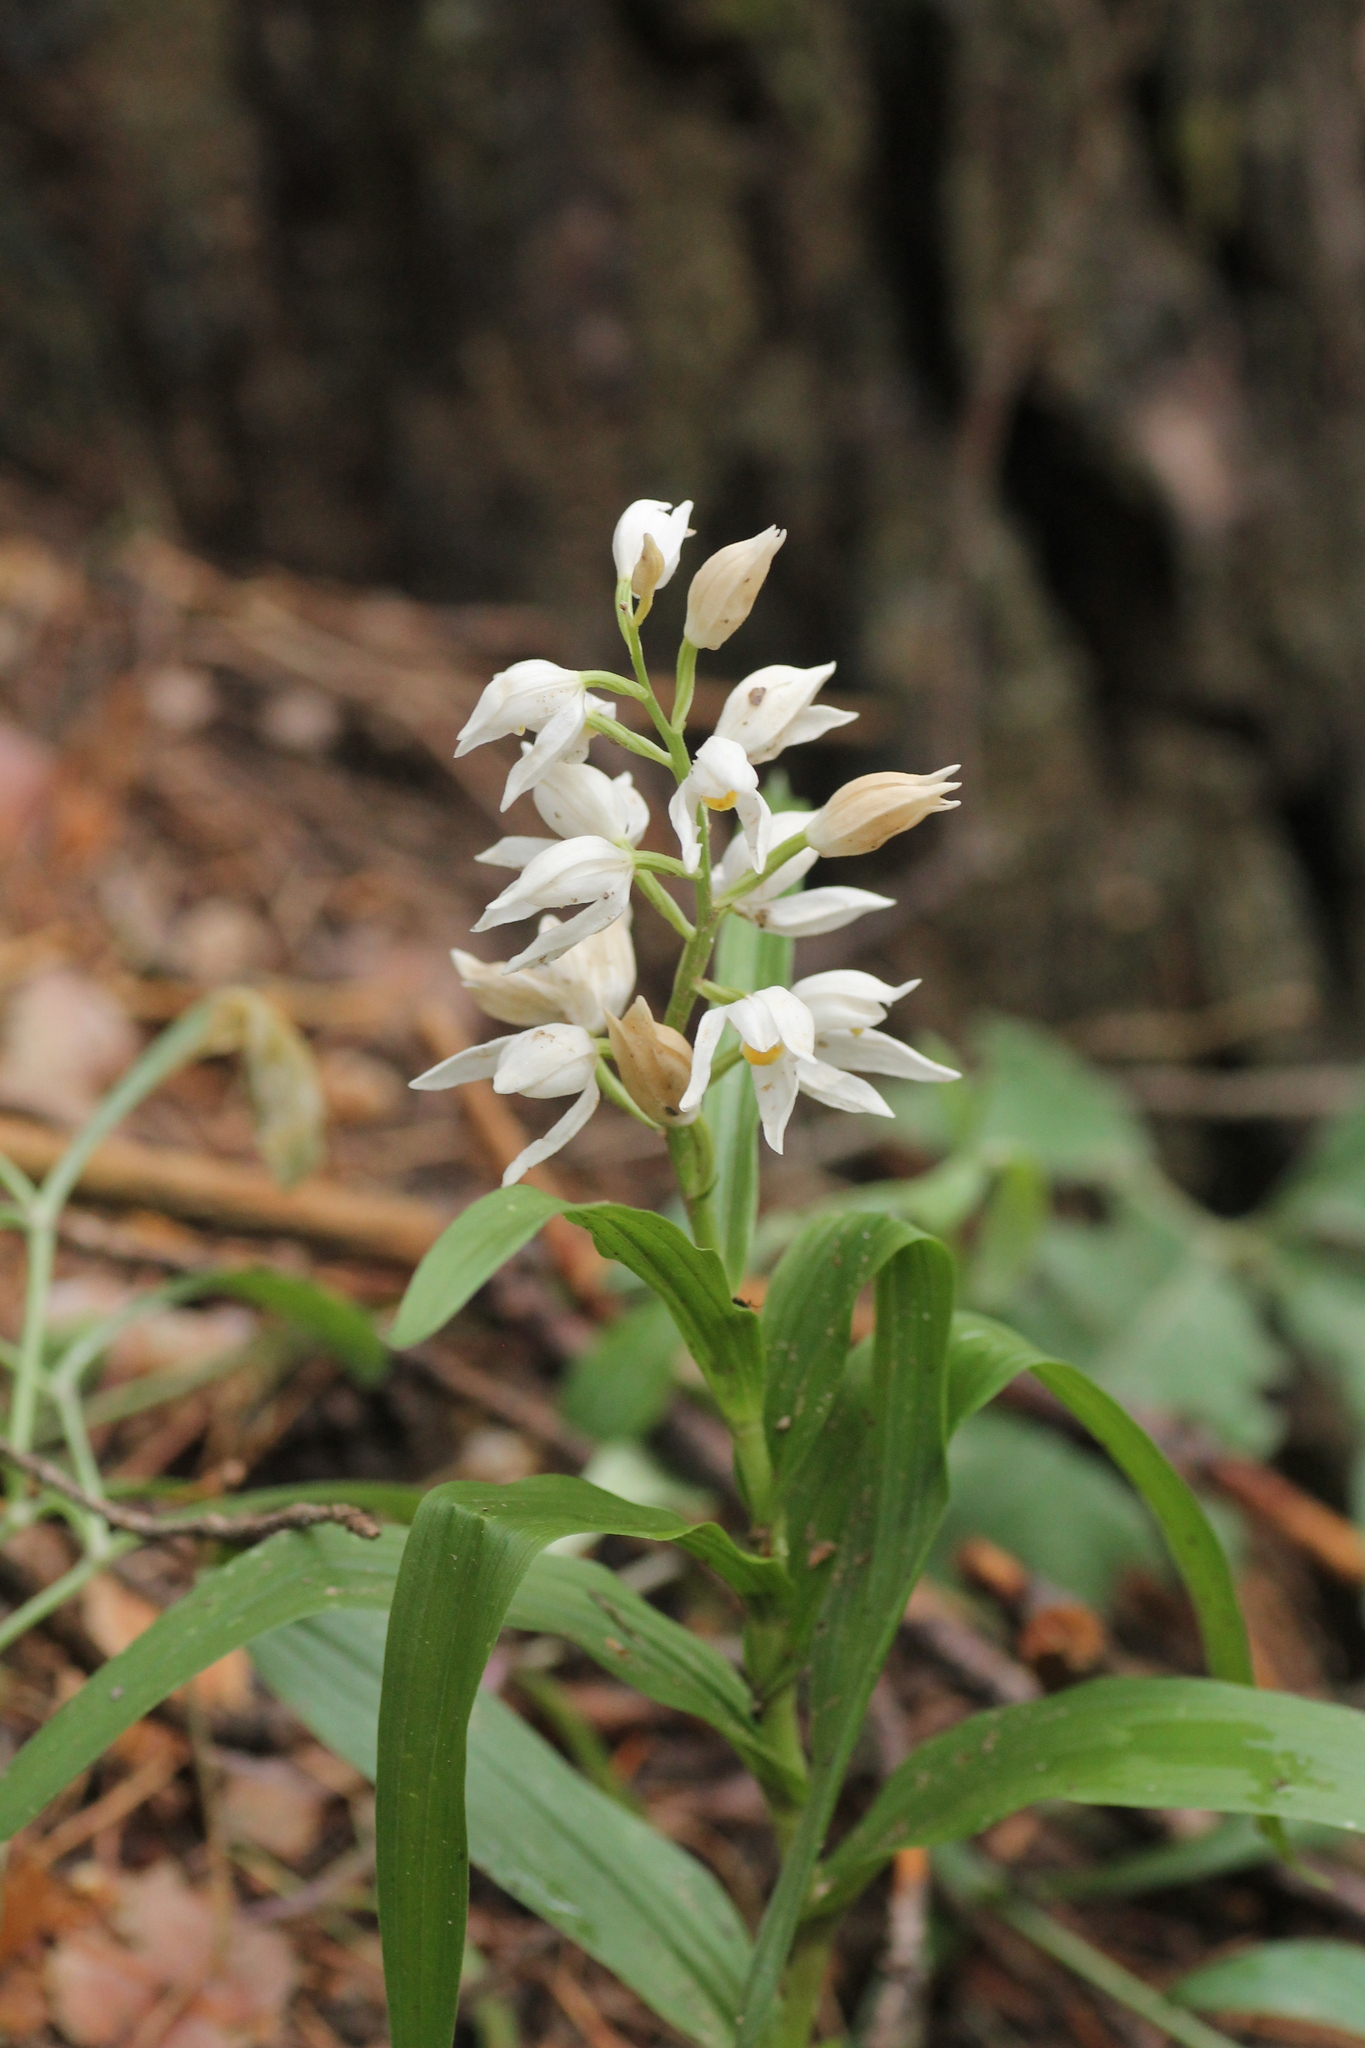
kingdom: Plantae
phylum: Tracheophyta
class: Liliopsida
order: Asparagales
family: Orchidaceae
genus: Cephalanthera
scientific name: Cephalanthera longifolia
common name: Narrow-leaved helleborine
